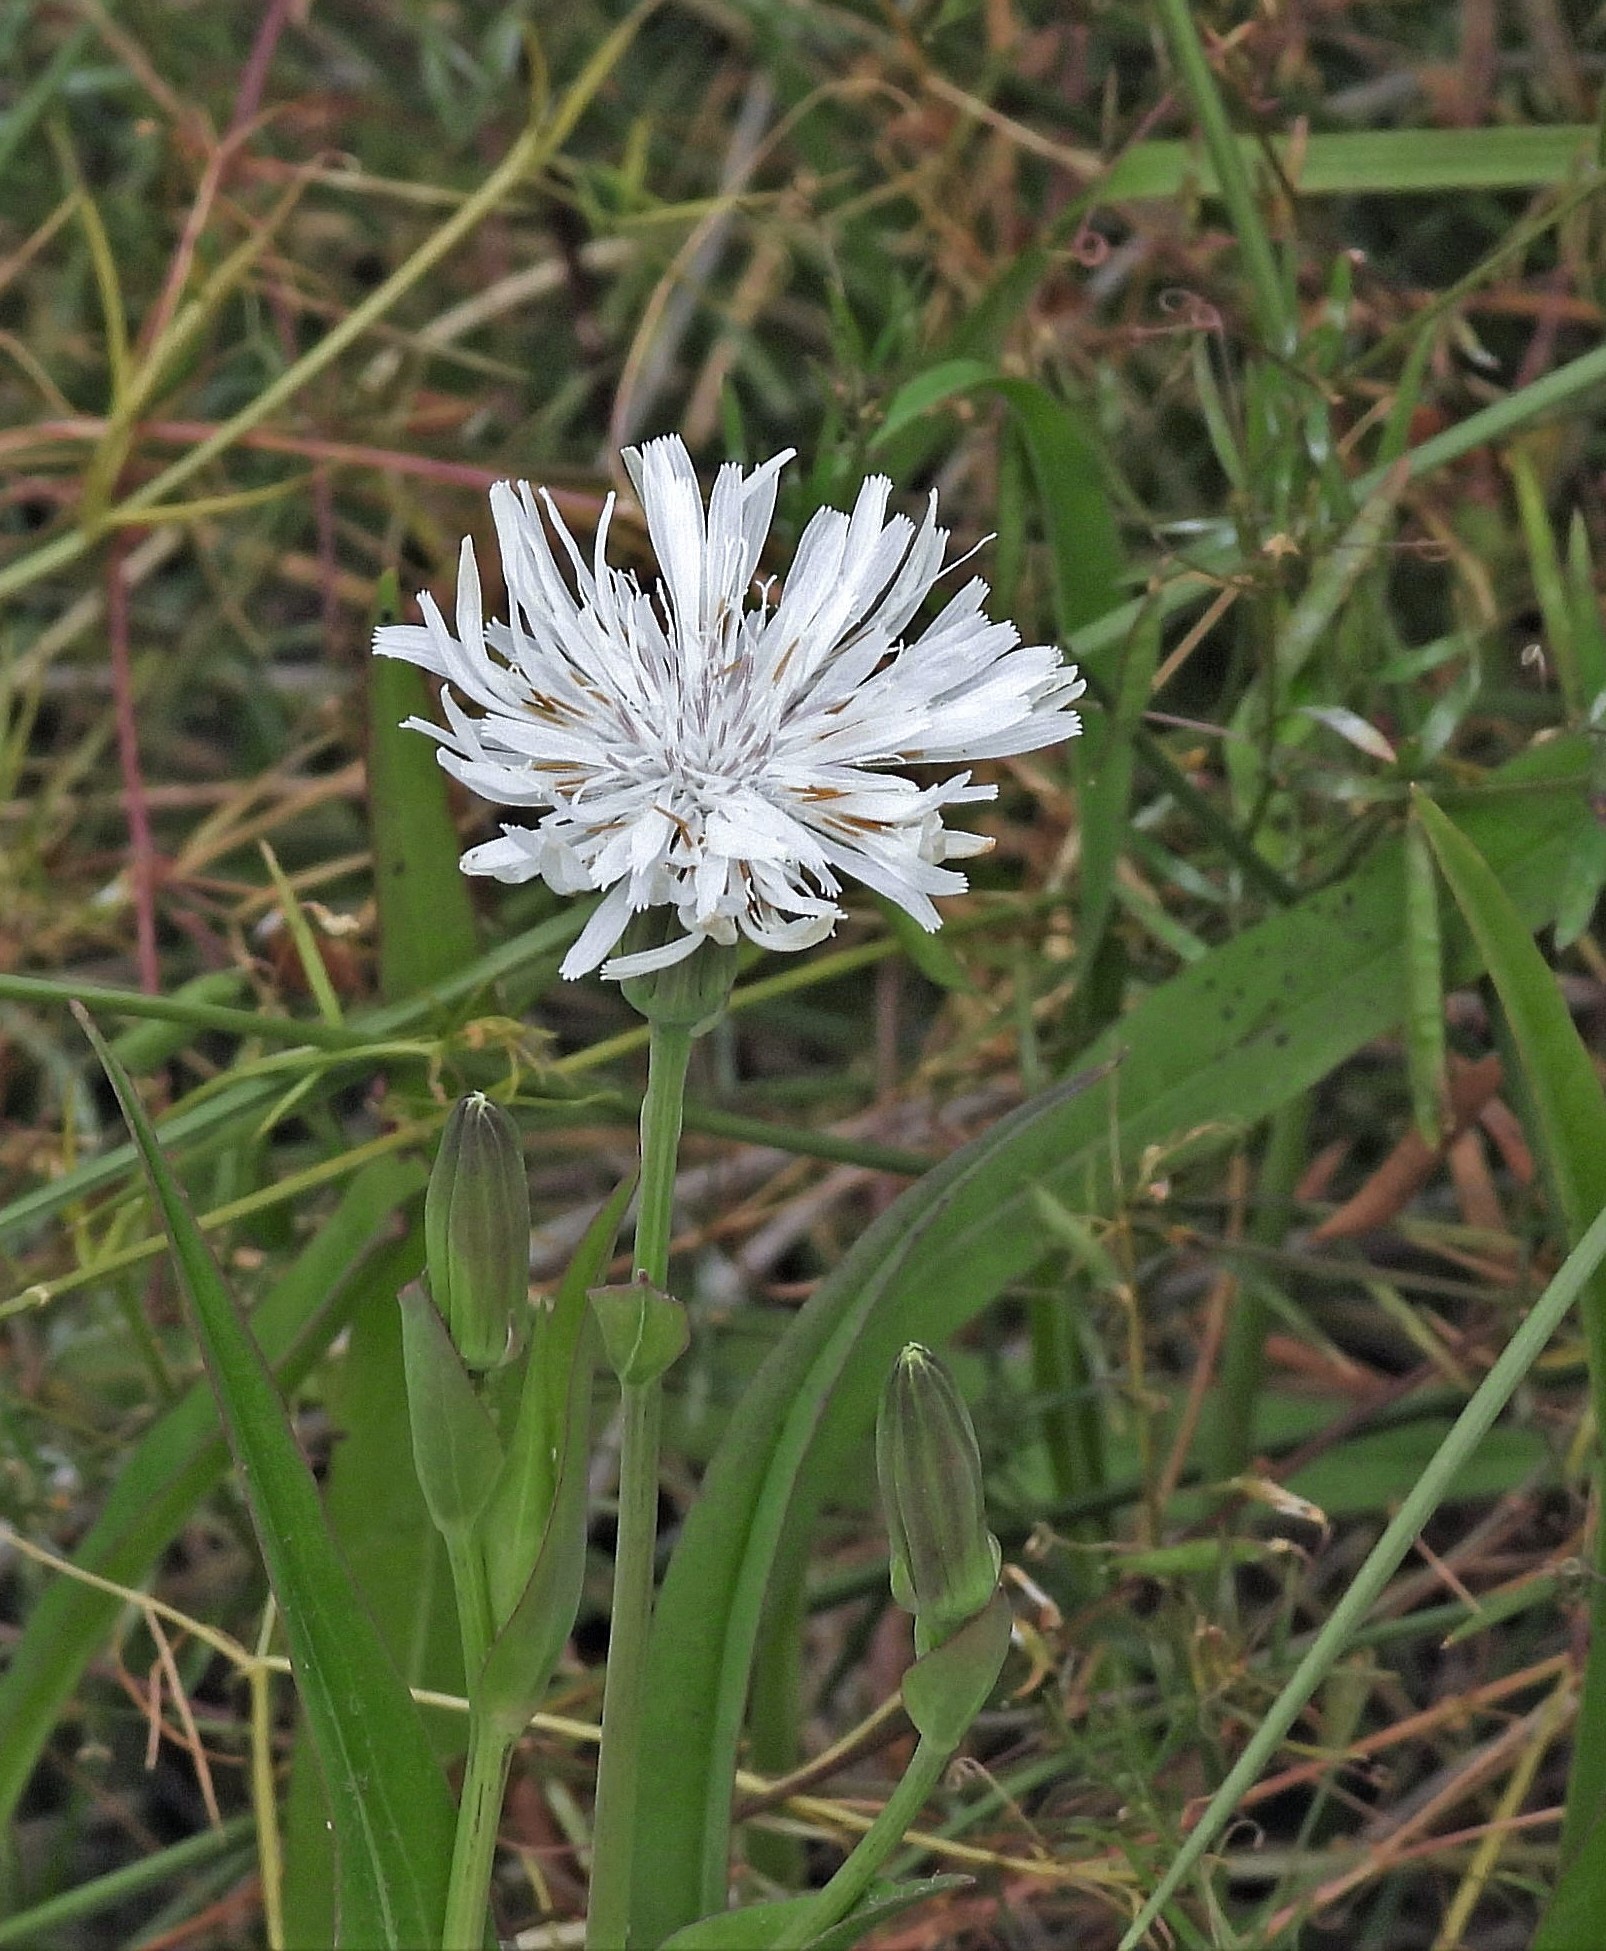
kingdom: Plantae
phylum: Tracheophyta
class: Magnoliopsida
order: Asterales
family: Asteraceae
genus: Picrosia
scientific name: Picrosia longifolia
